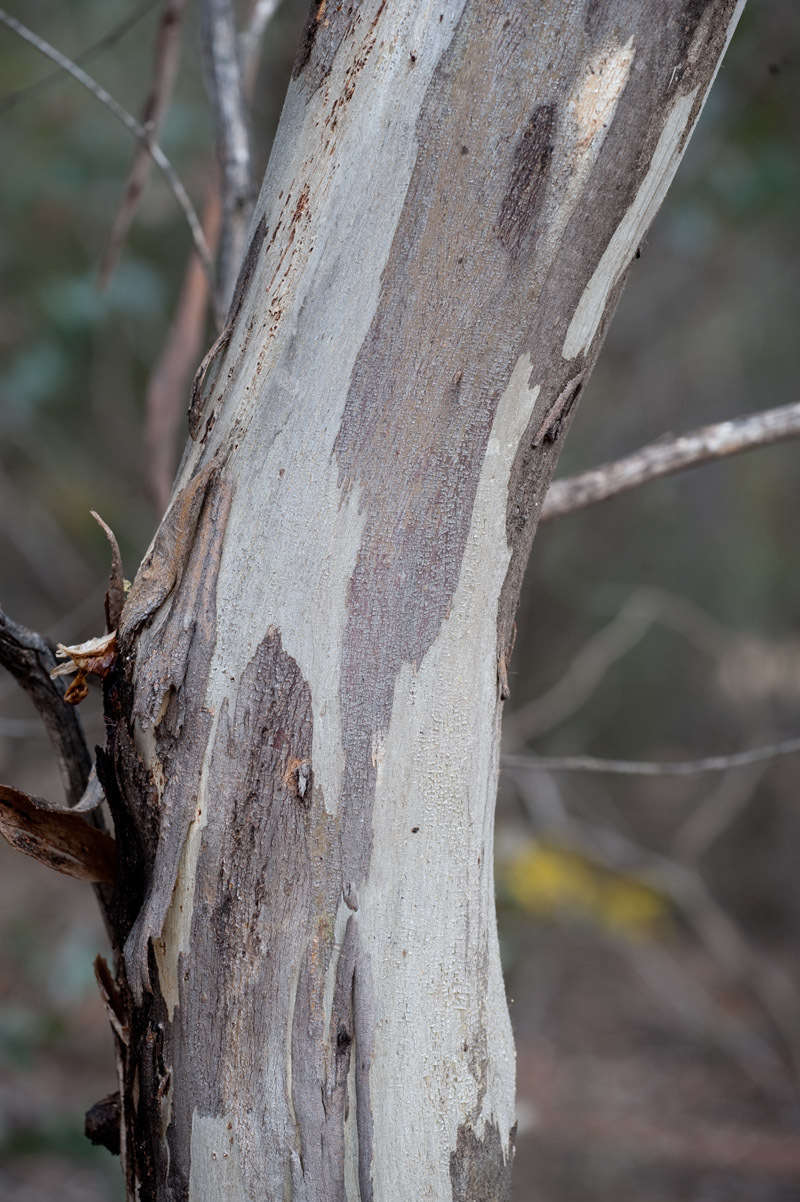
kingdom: Plantae
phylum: Tracheophyta
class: Magnoliopsida
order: Myrtales
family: Myrtaceae
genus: Eucalyptus
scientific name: Eucalyptus leucoxylon
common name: Blue gum
